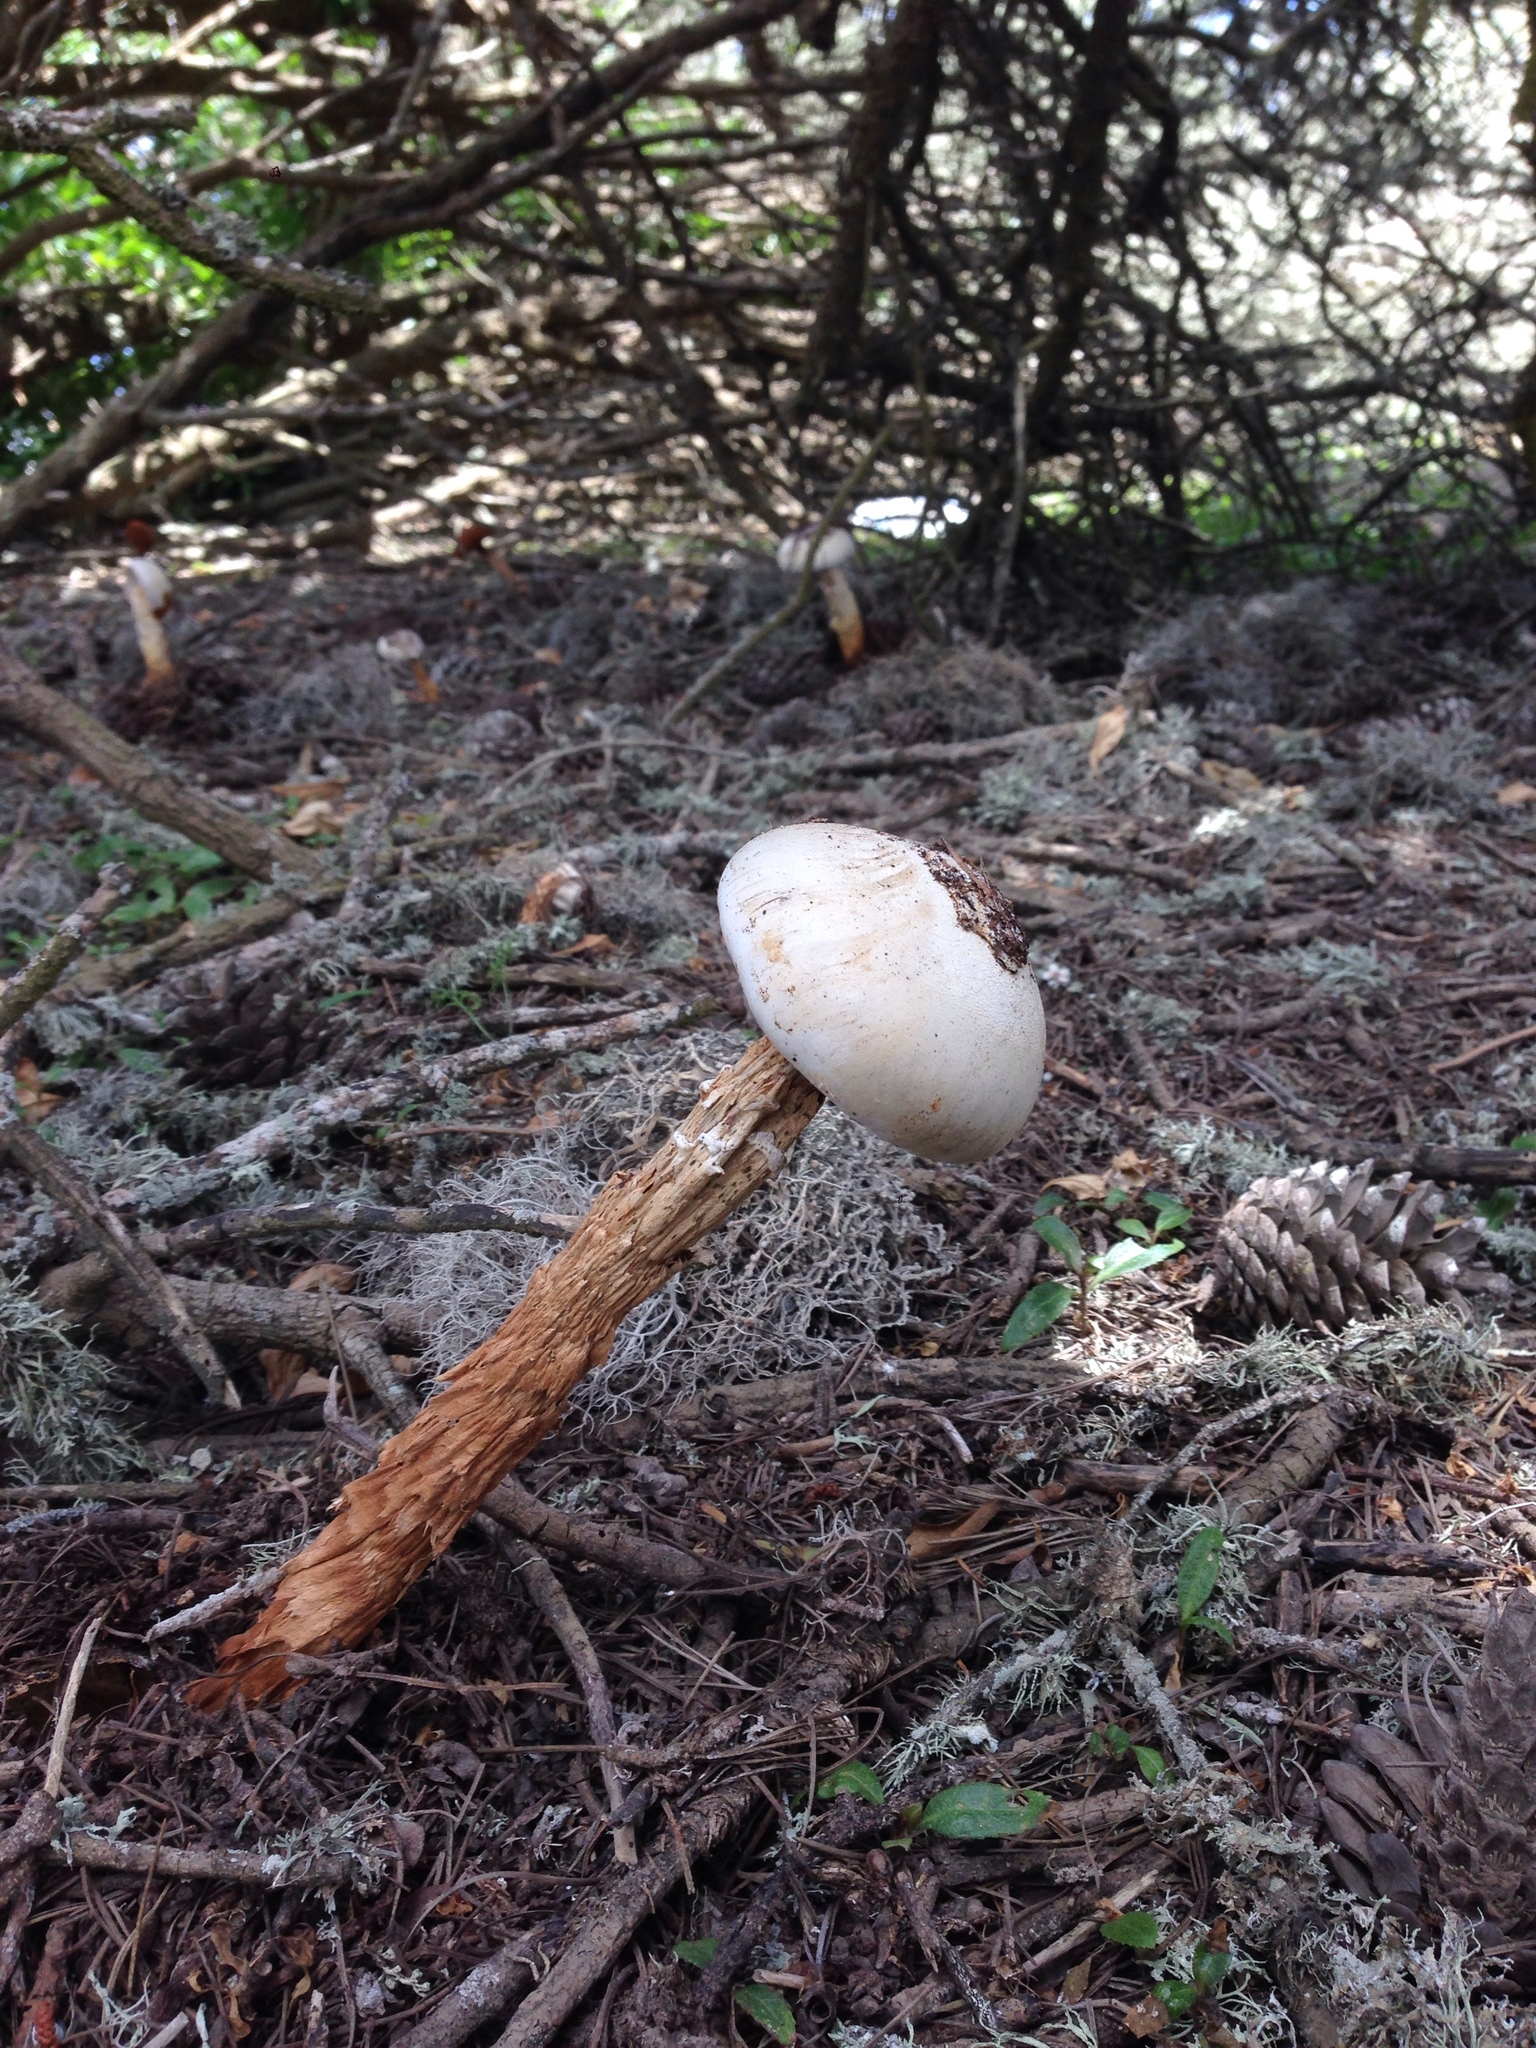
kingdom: Fungi
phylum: Basidiomycota
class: Agaricomycetes
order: Agaricales
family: Agaricaceae
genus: Battarrea
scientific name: Battarrea phalloides
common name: Sandy stiltball
